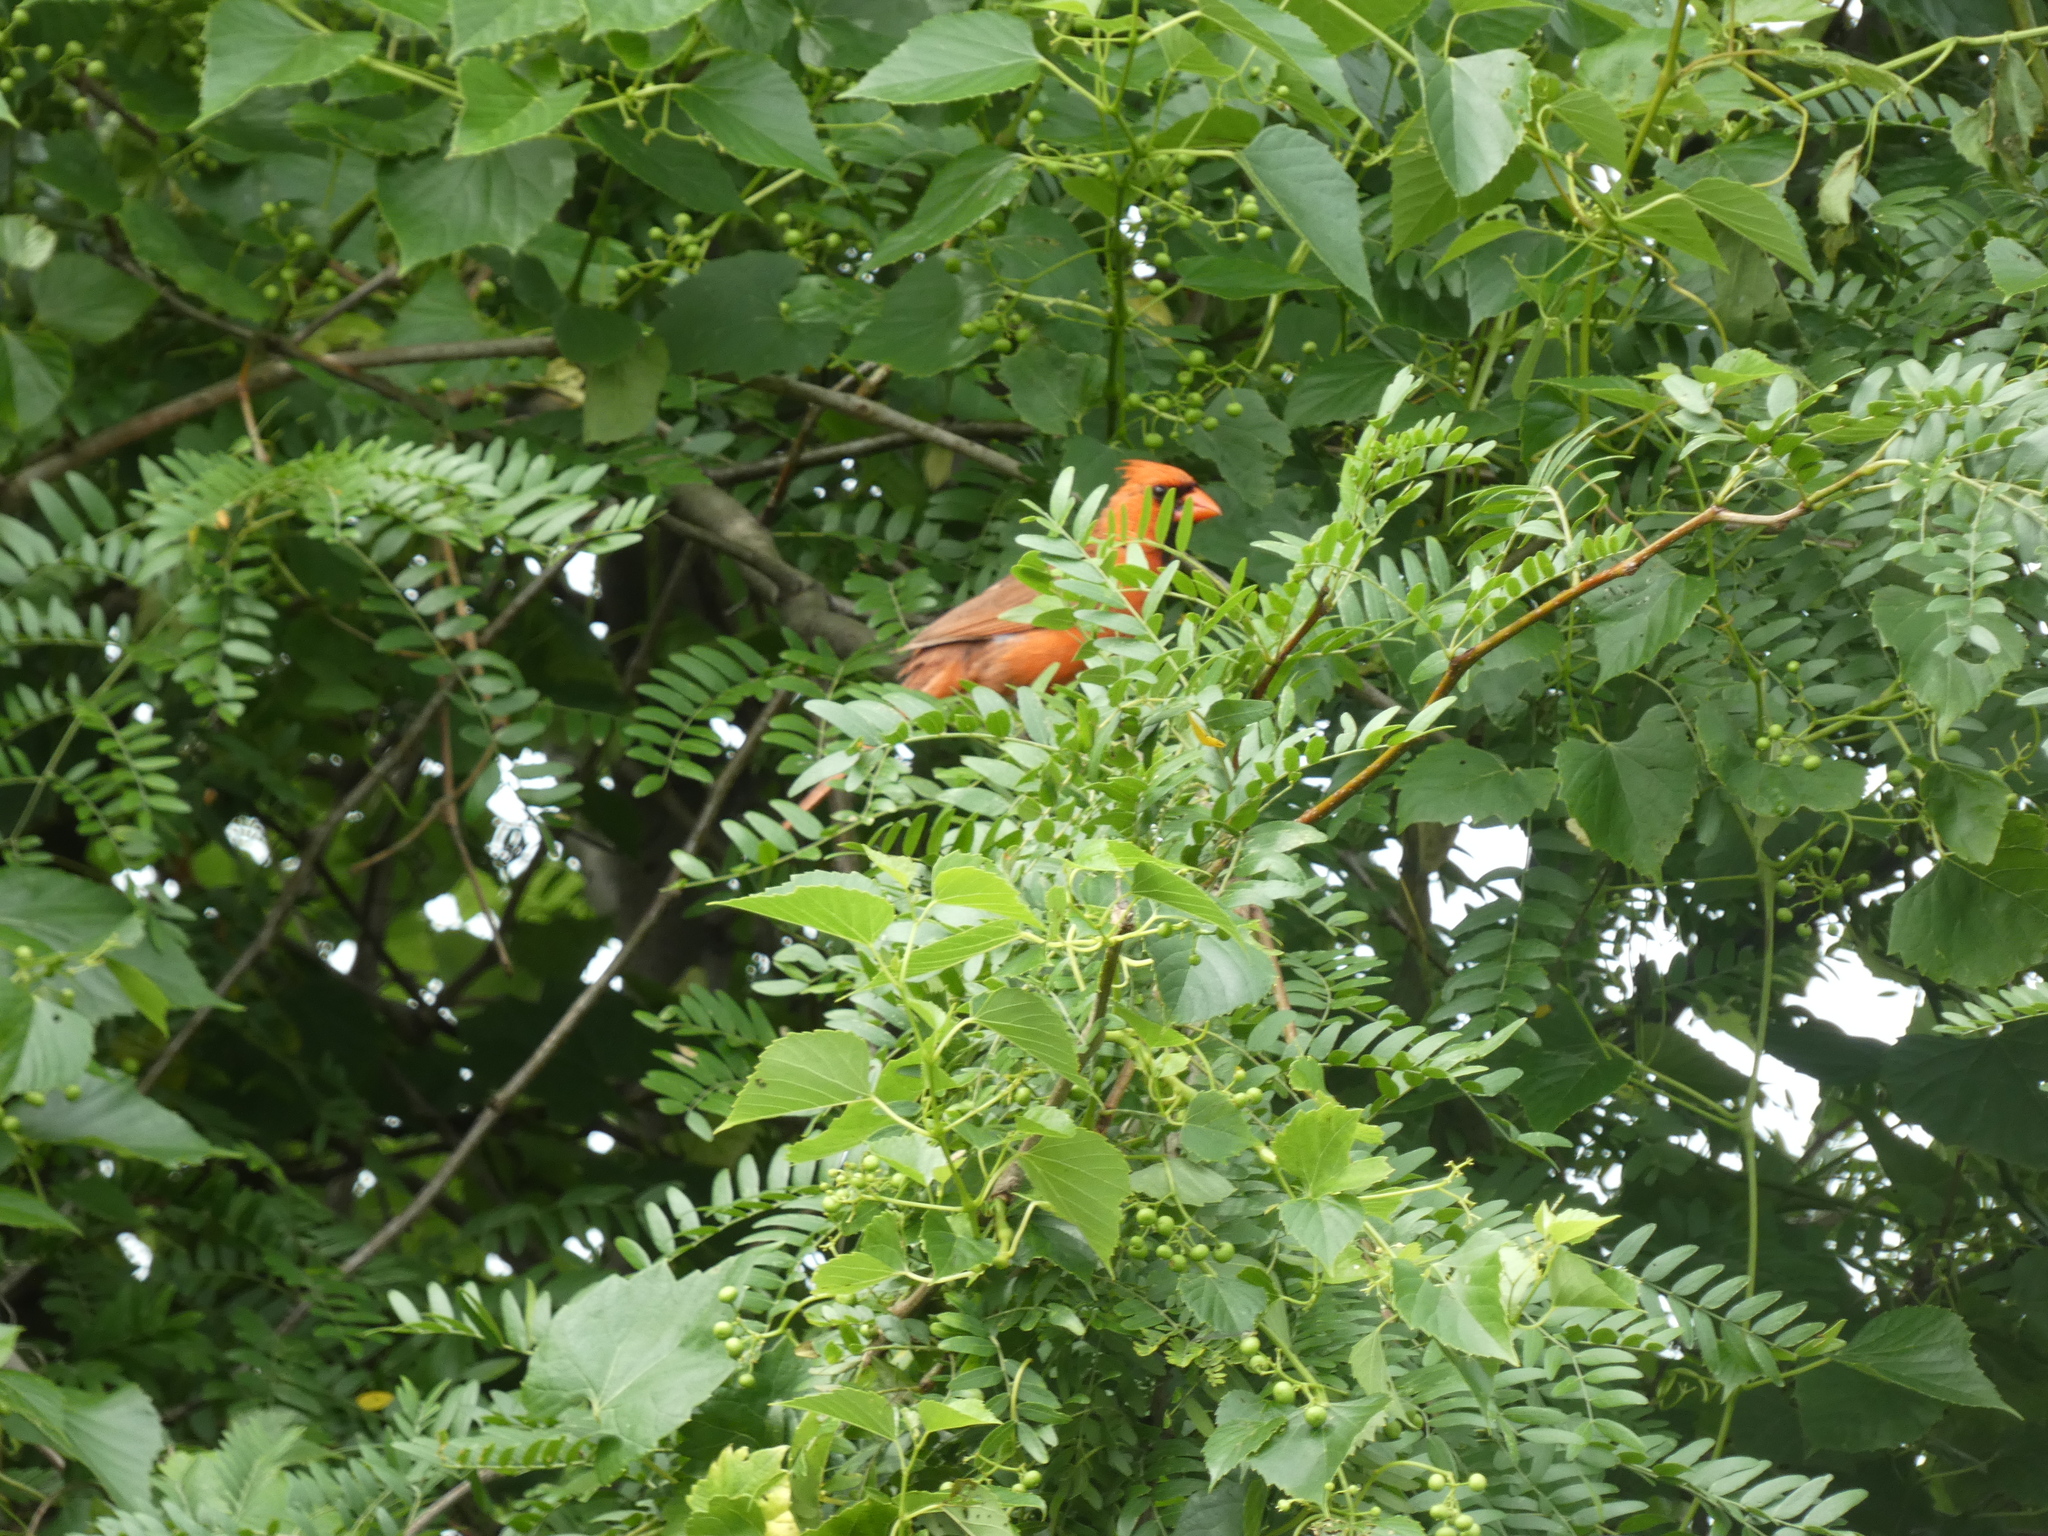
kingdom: Animalia
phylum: Chordata
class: Aves
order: Passeriformes
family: Cardinalidae
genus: Cardinalis
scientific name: Cardinalis cardinalis
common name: Northern cardinal
